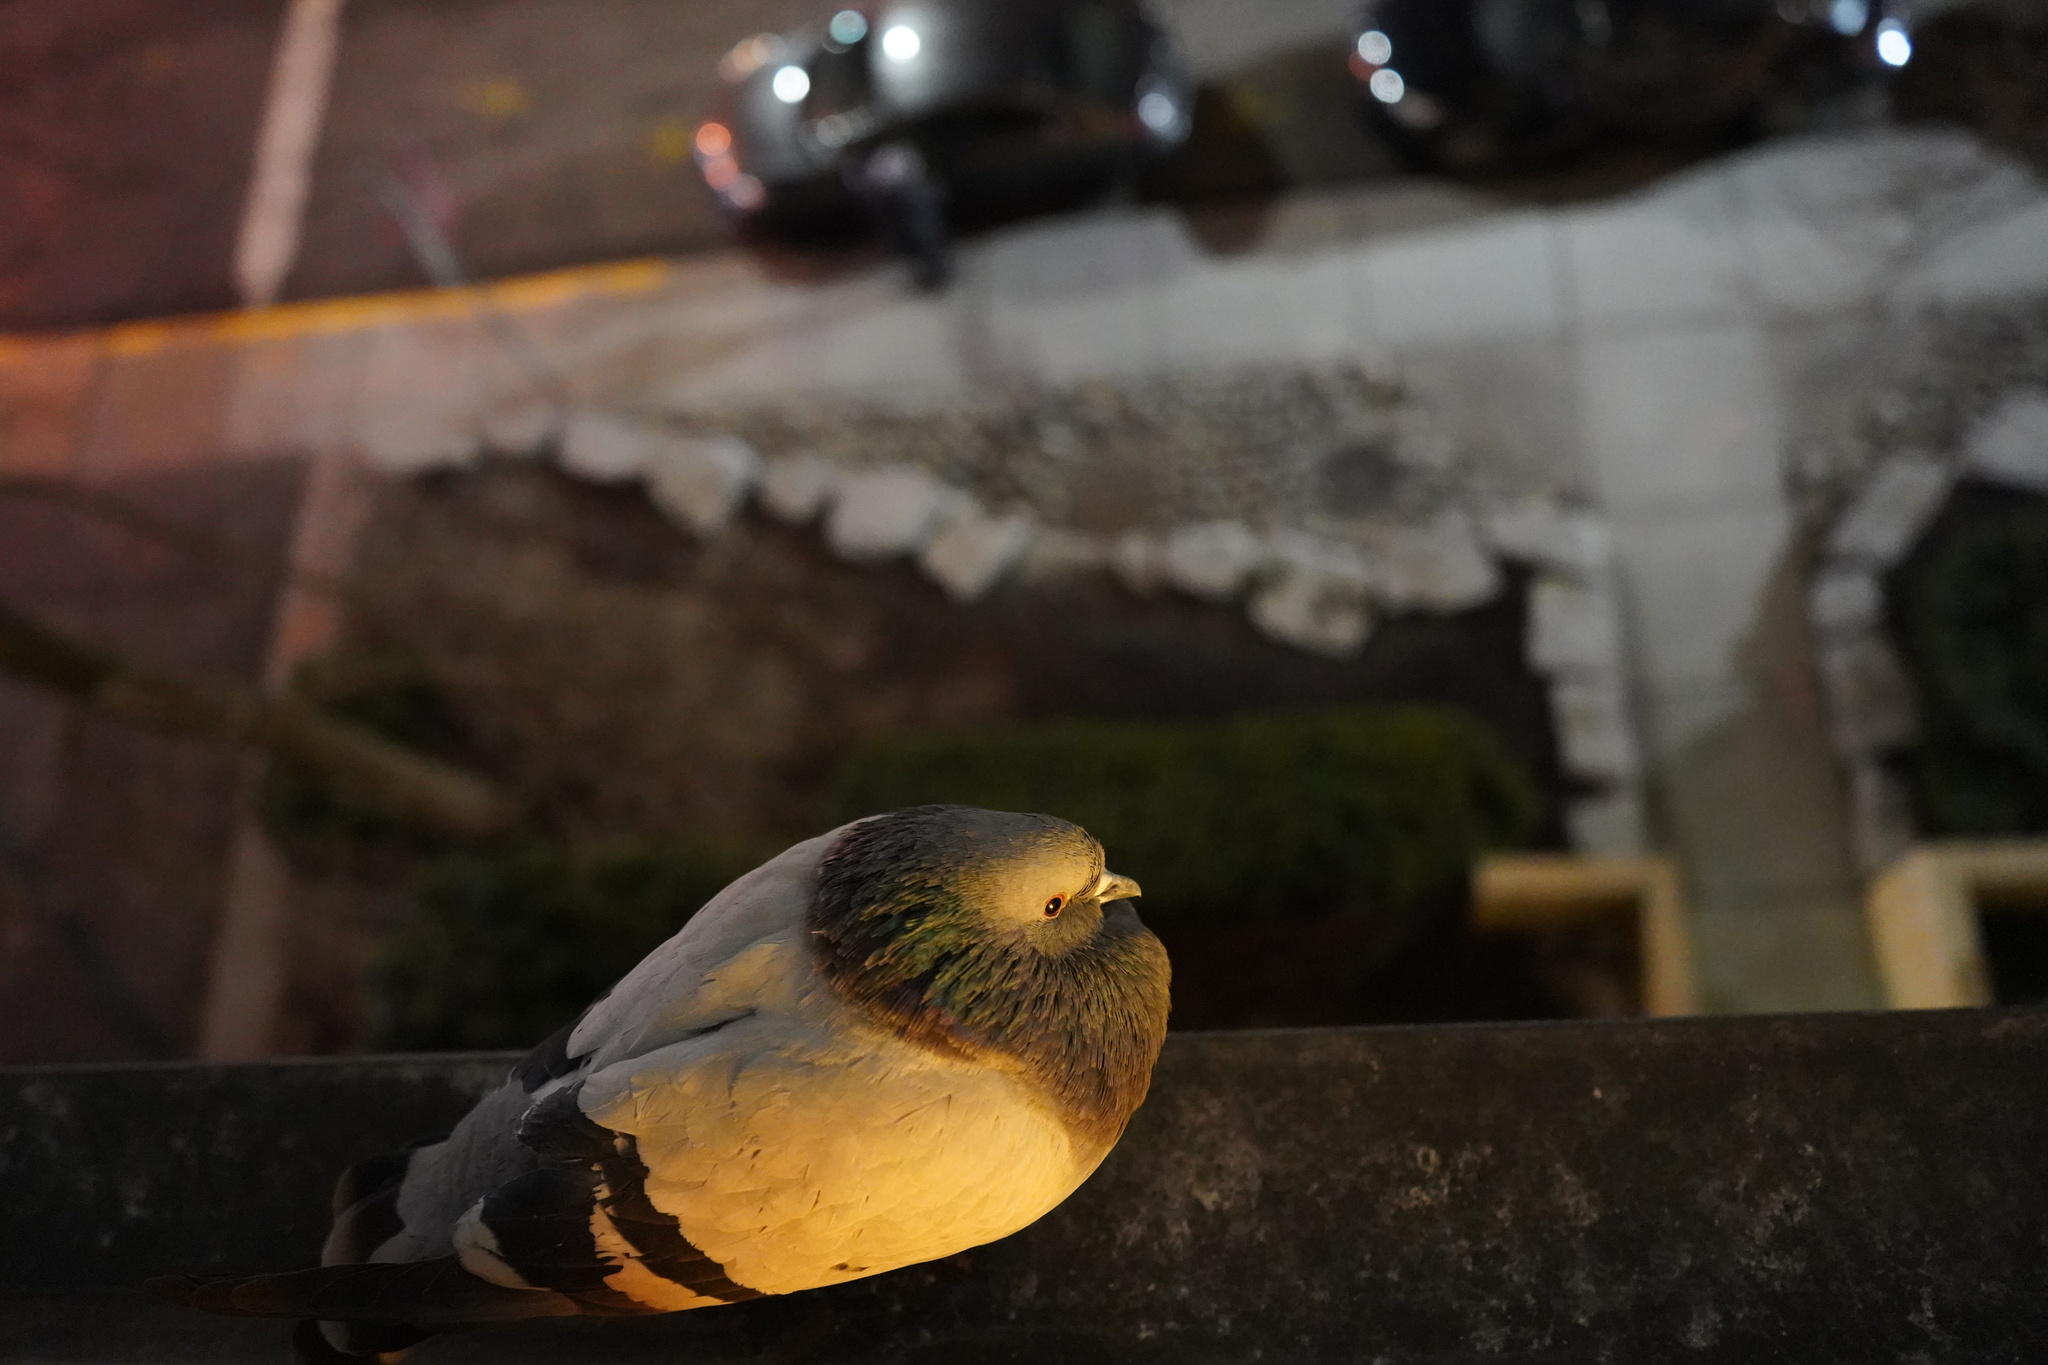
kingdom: Animalia
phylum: Chordata
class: Aves
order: Columbiformes
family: Columbidae
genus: Columba
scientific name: Columba livia
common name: Rock pigeon
